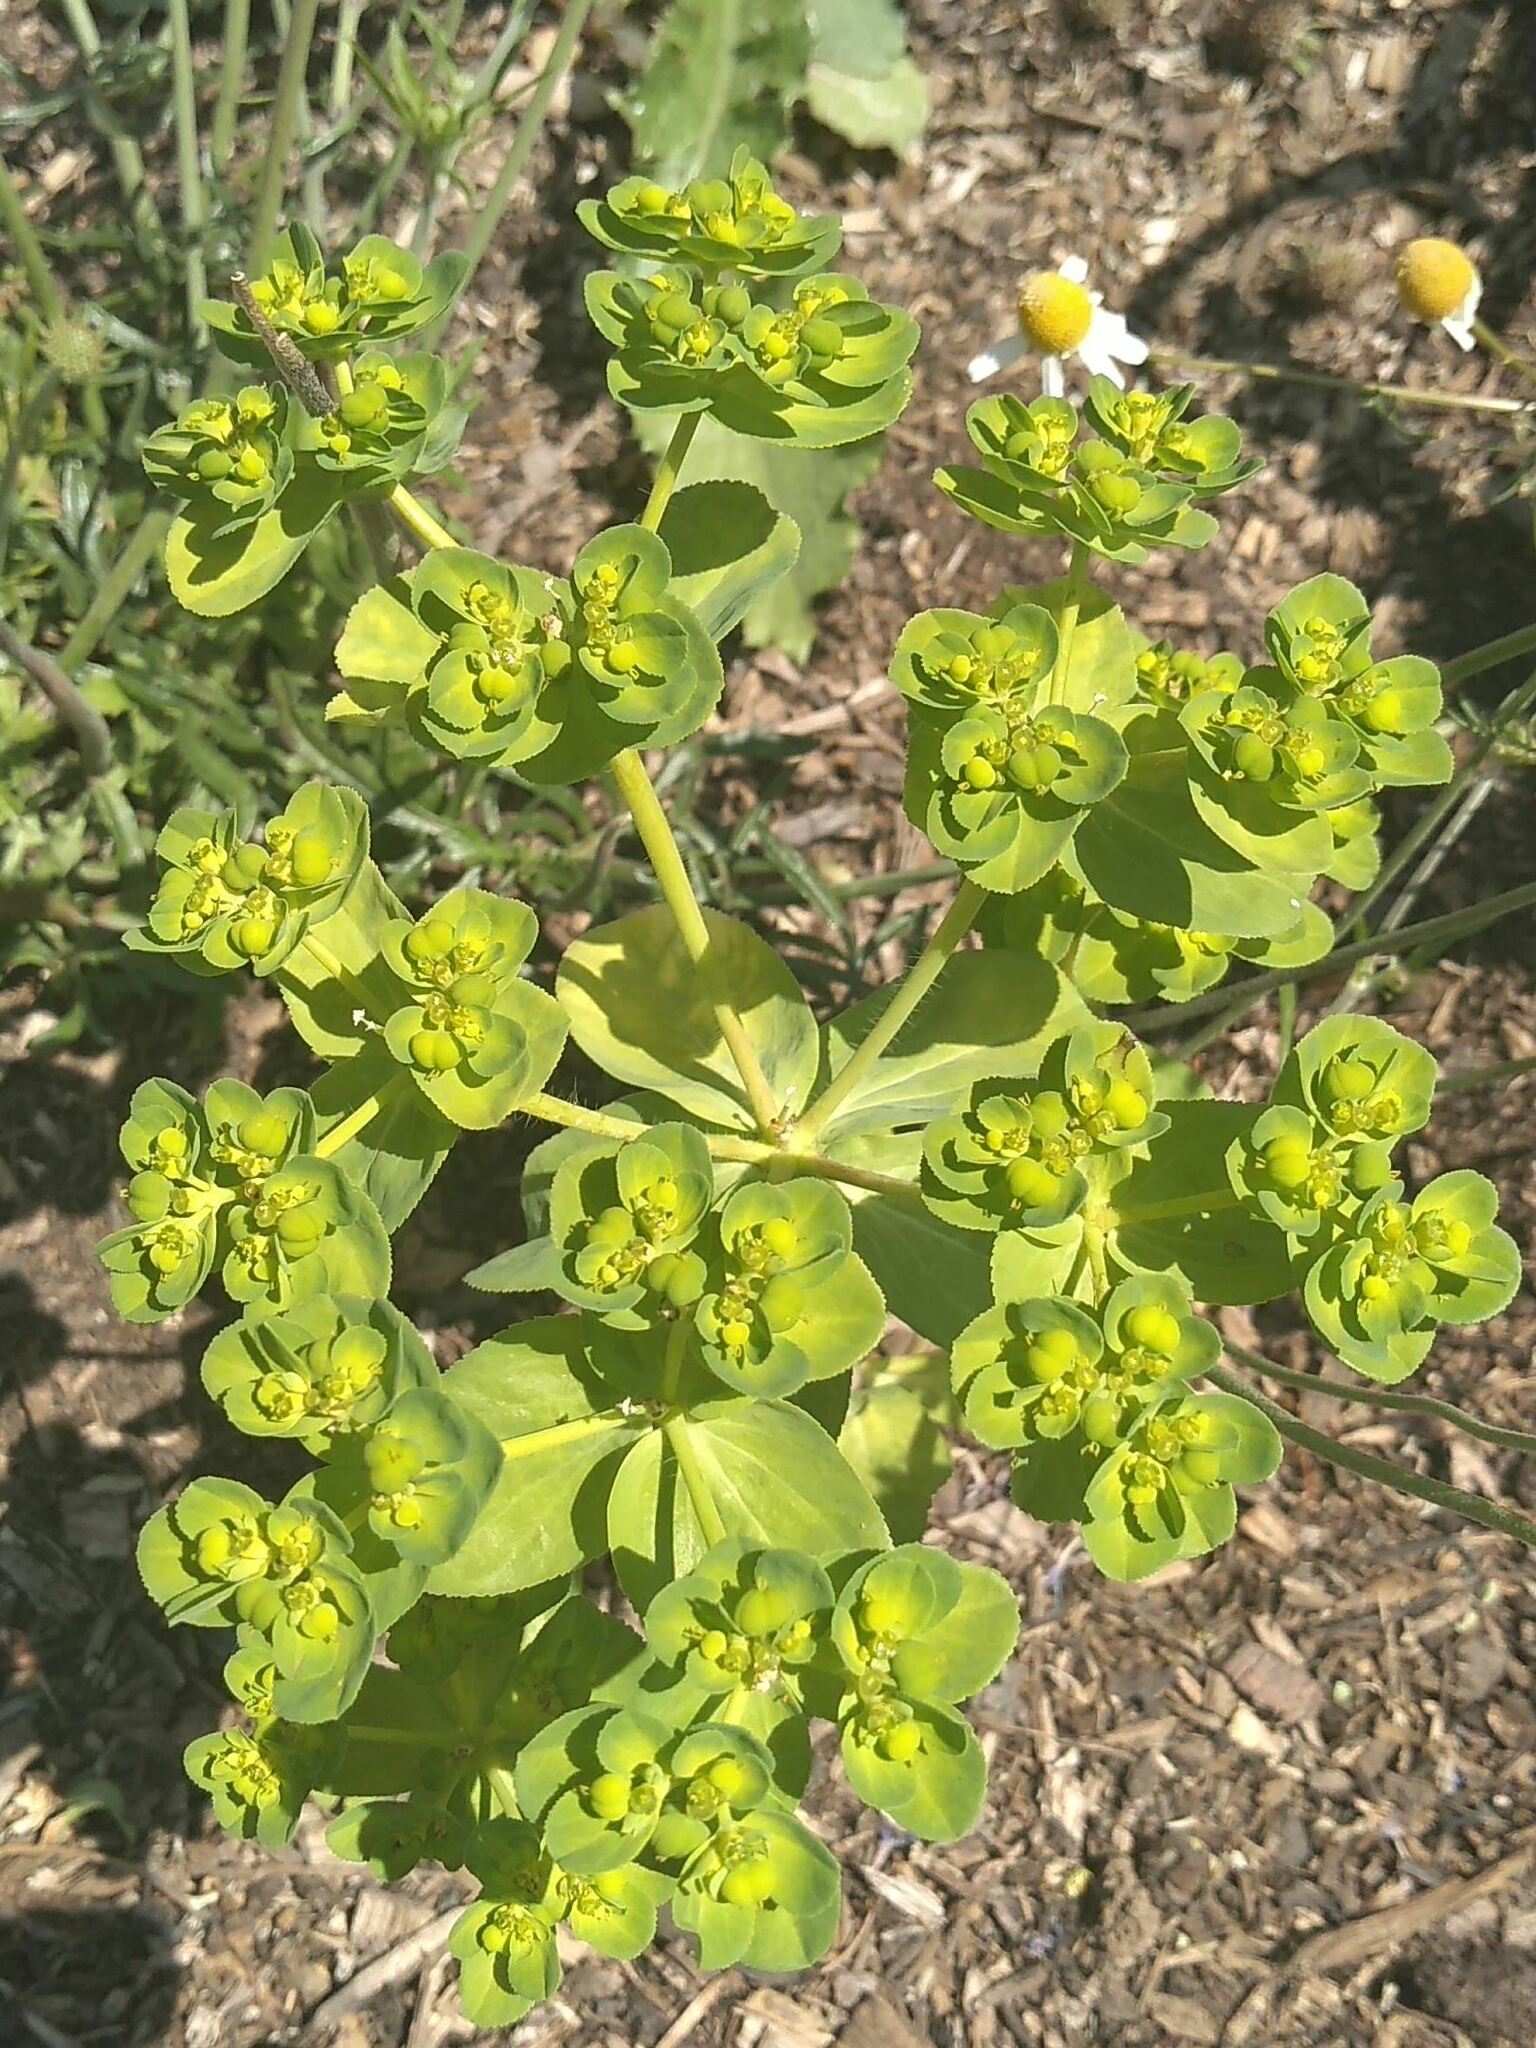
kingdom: Plantae
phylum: Tracheophyta
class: Magnoliopsida
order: Malpighiales
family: Euphorbiaceae
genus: Euphorbia
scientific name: Euphorbia helioscopia
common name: Sun spurge
